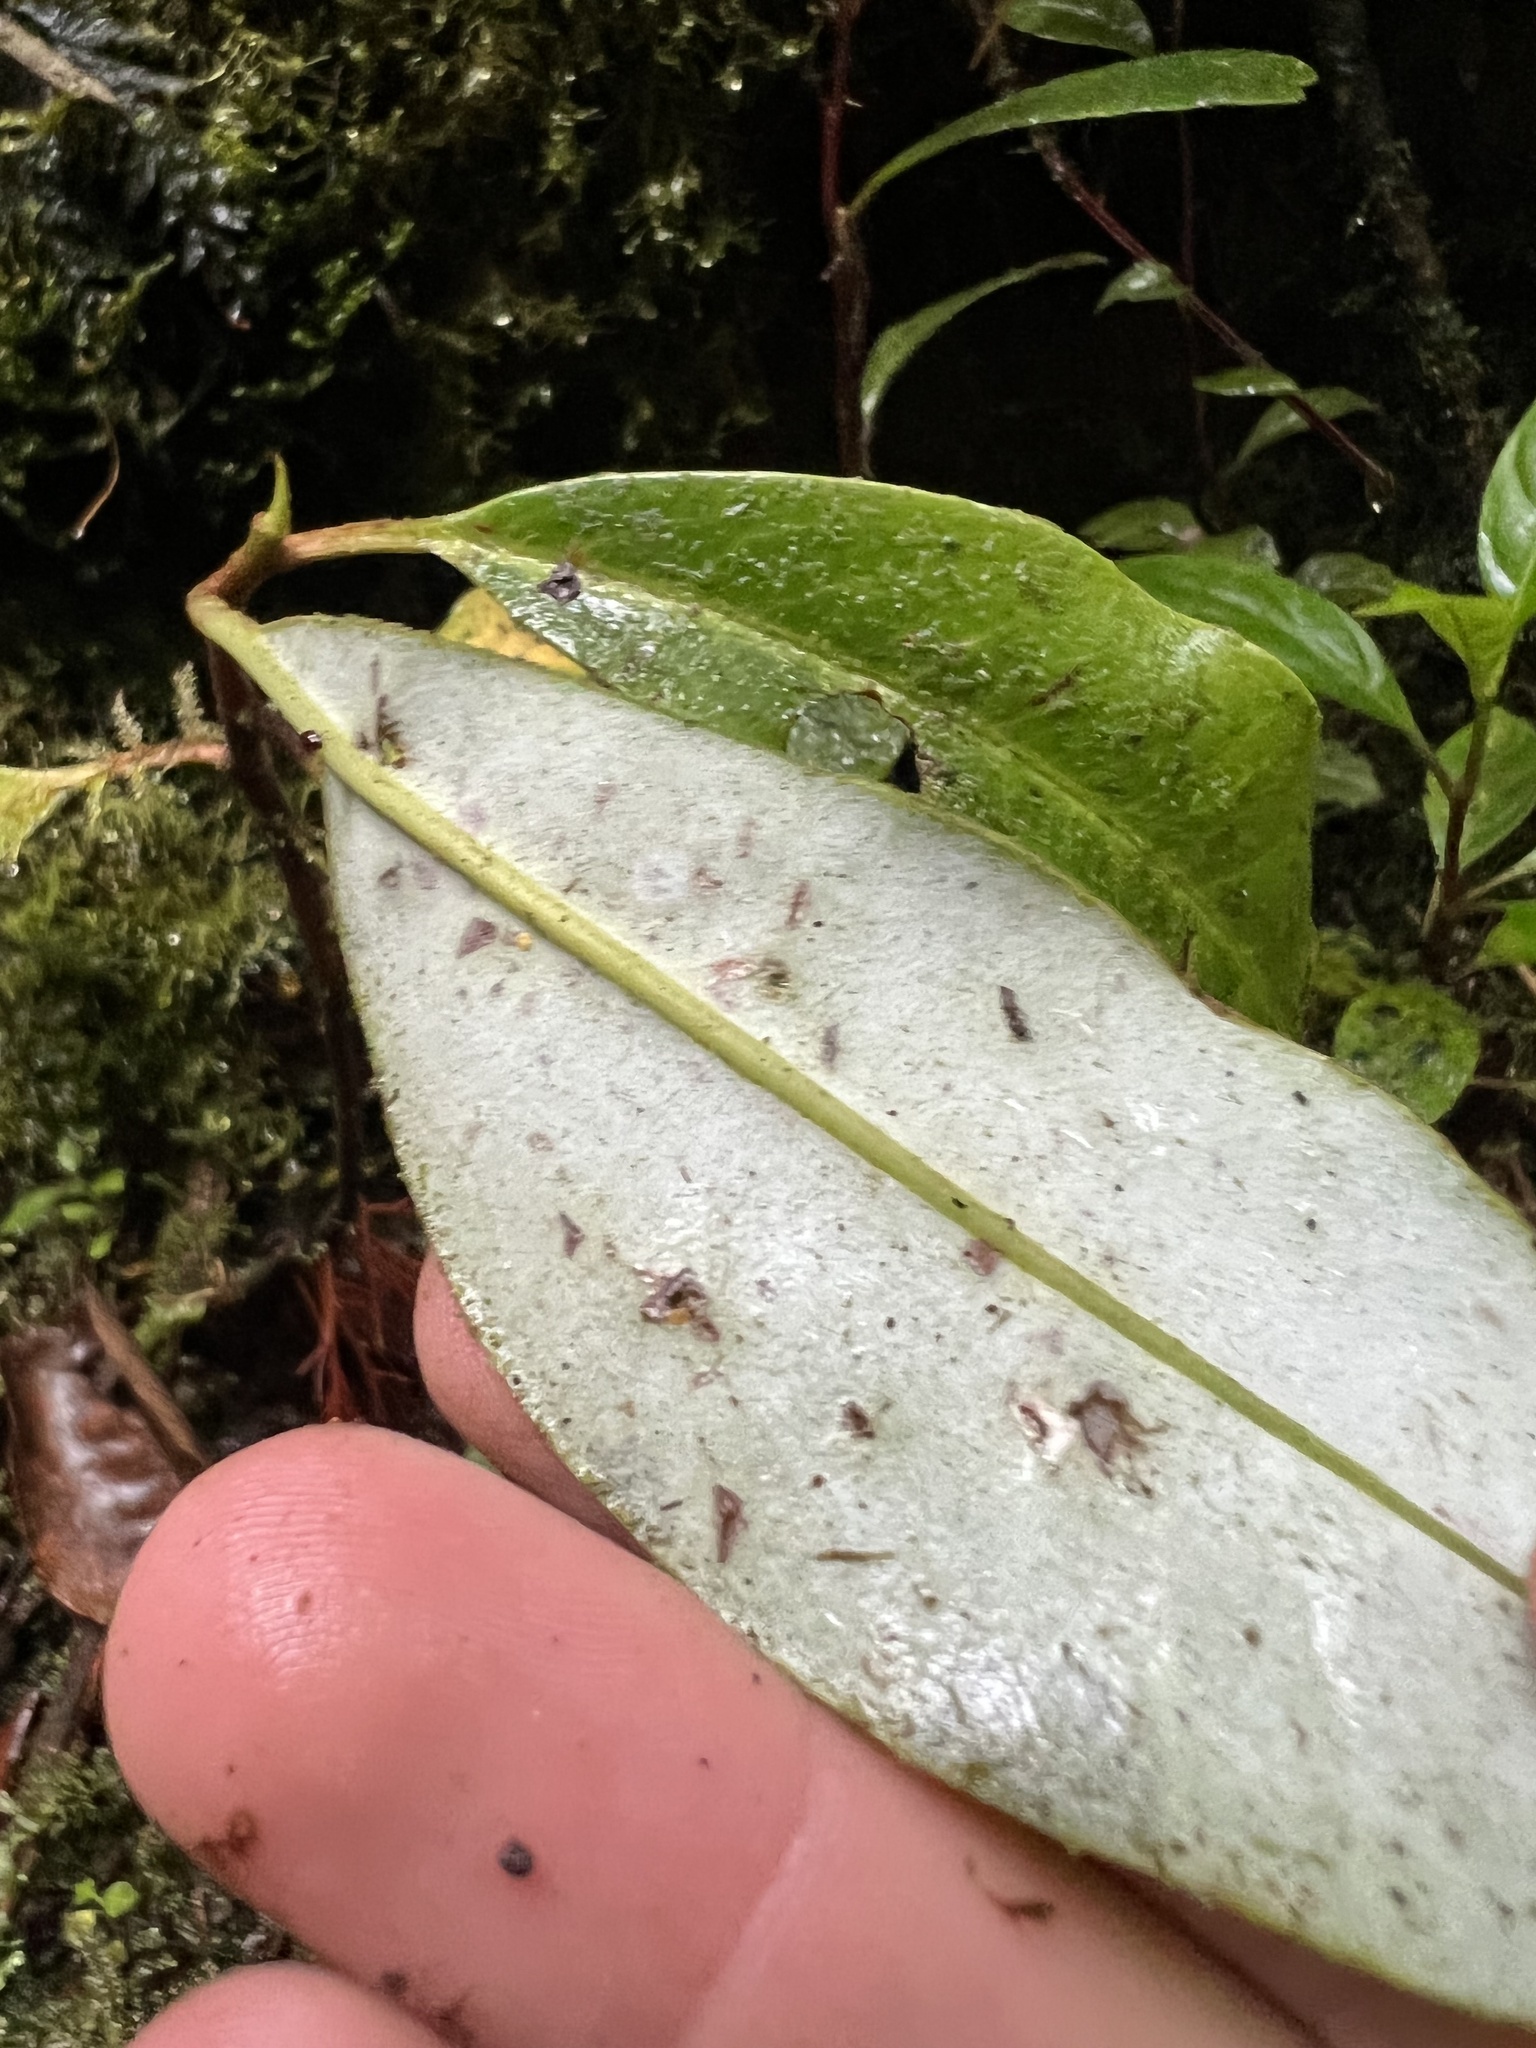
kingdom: Plantae
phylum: Tracheophyta
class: Magnoliopsida
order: Canellales
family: Winteraceae
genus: Drimys
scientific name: Drimys granadensis
